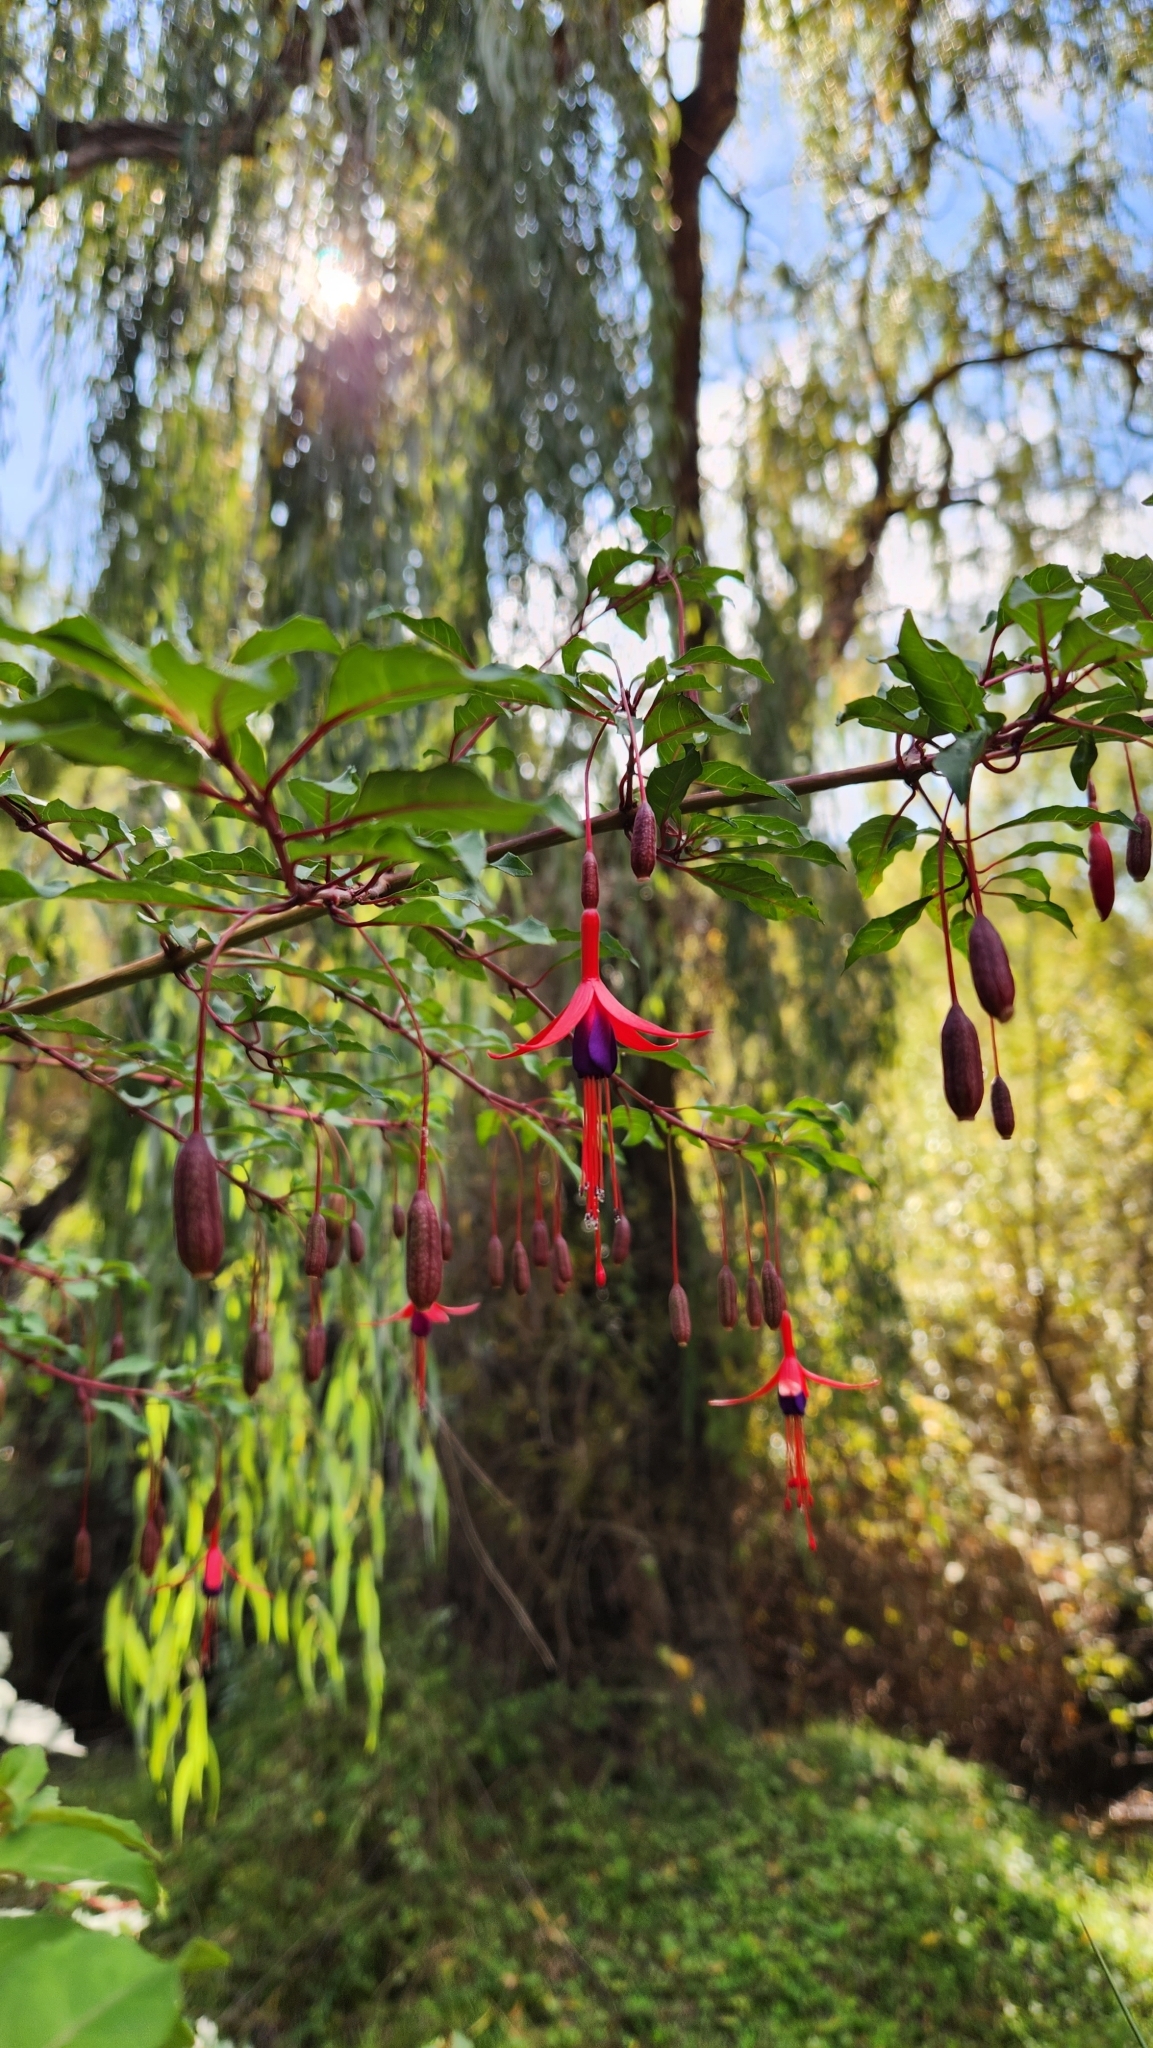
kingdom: Plantae
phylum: Tracheophyta
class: Magnoliopsida
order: Myrtales
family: Onagraceae
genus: Fuchsia
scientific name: Fuchsia magellanica
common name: Hardy fuchsia
